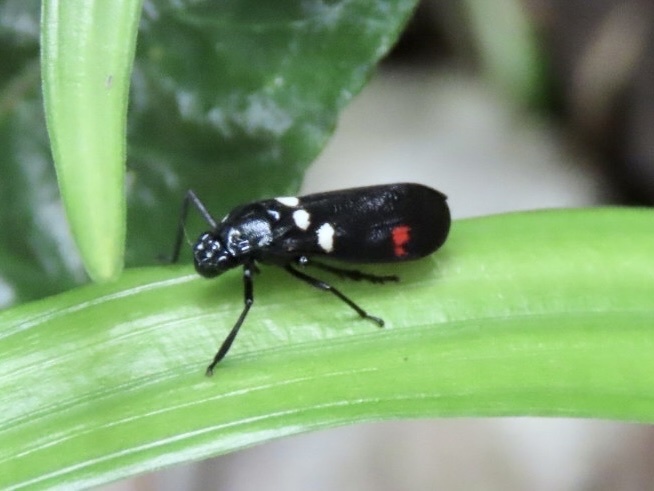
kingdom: Animalia
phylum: Arthropoda
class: Insecta
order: Hemiptera
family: Cercopidae
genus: Callitettix
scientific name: Callitettix versicolor
